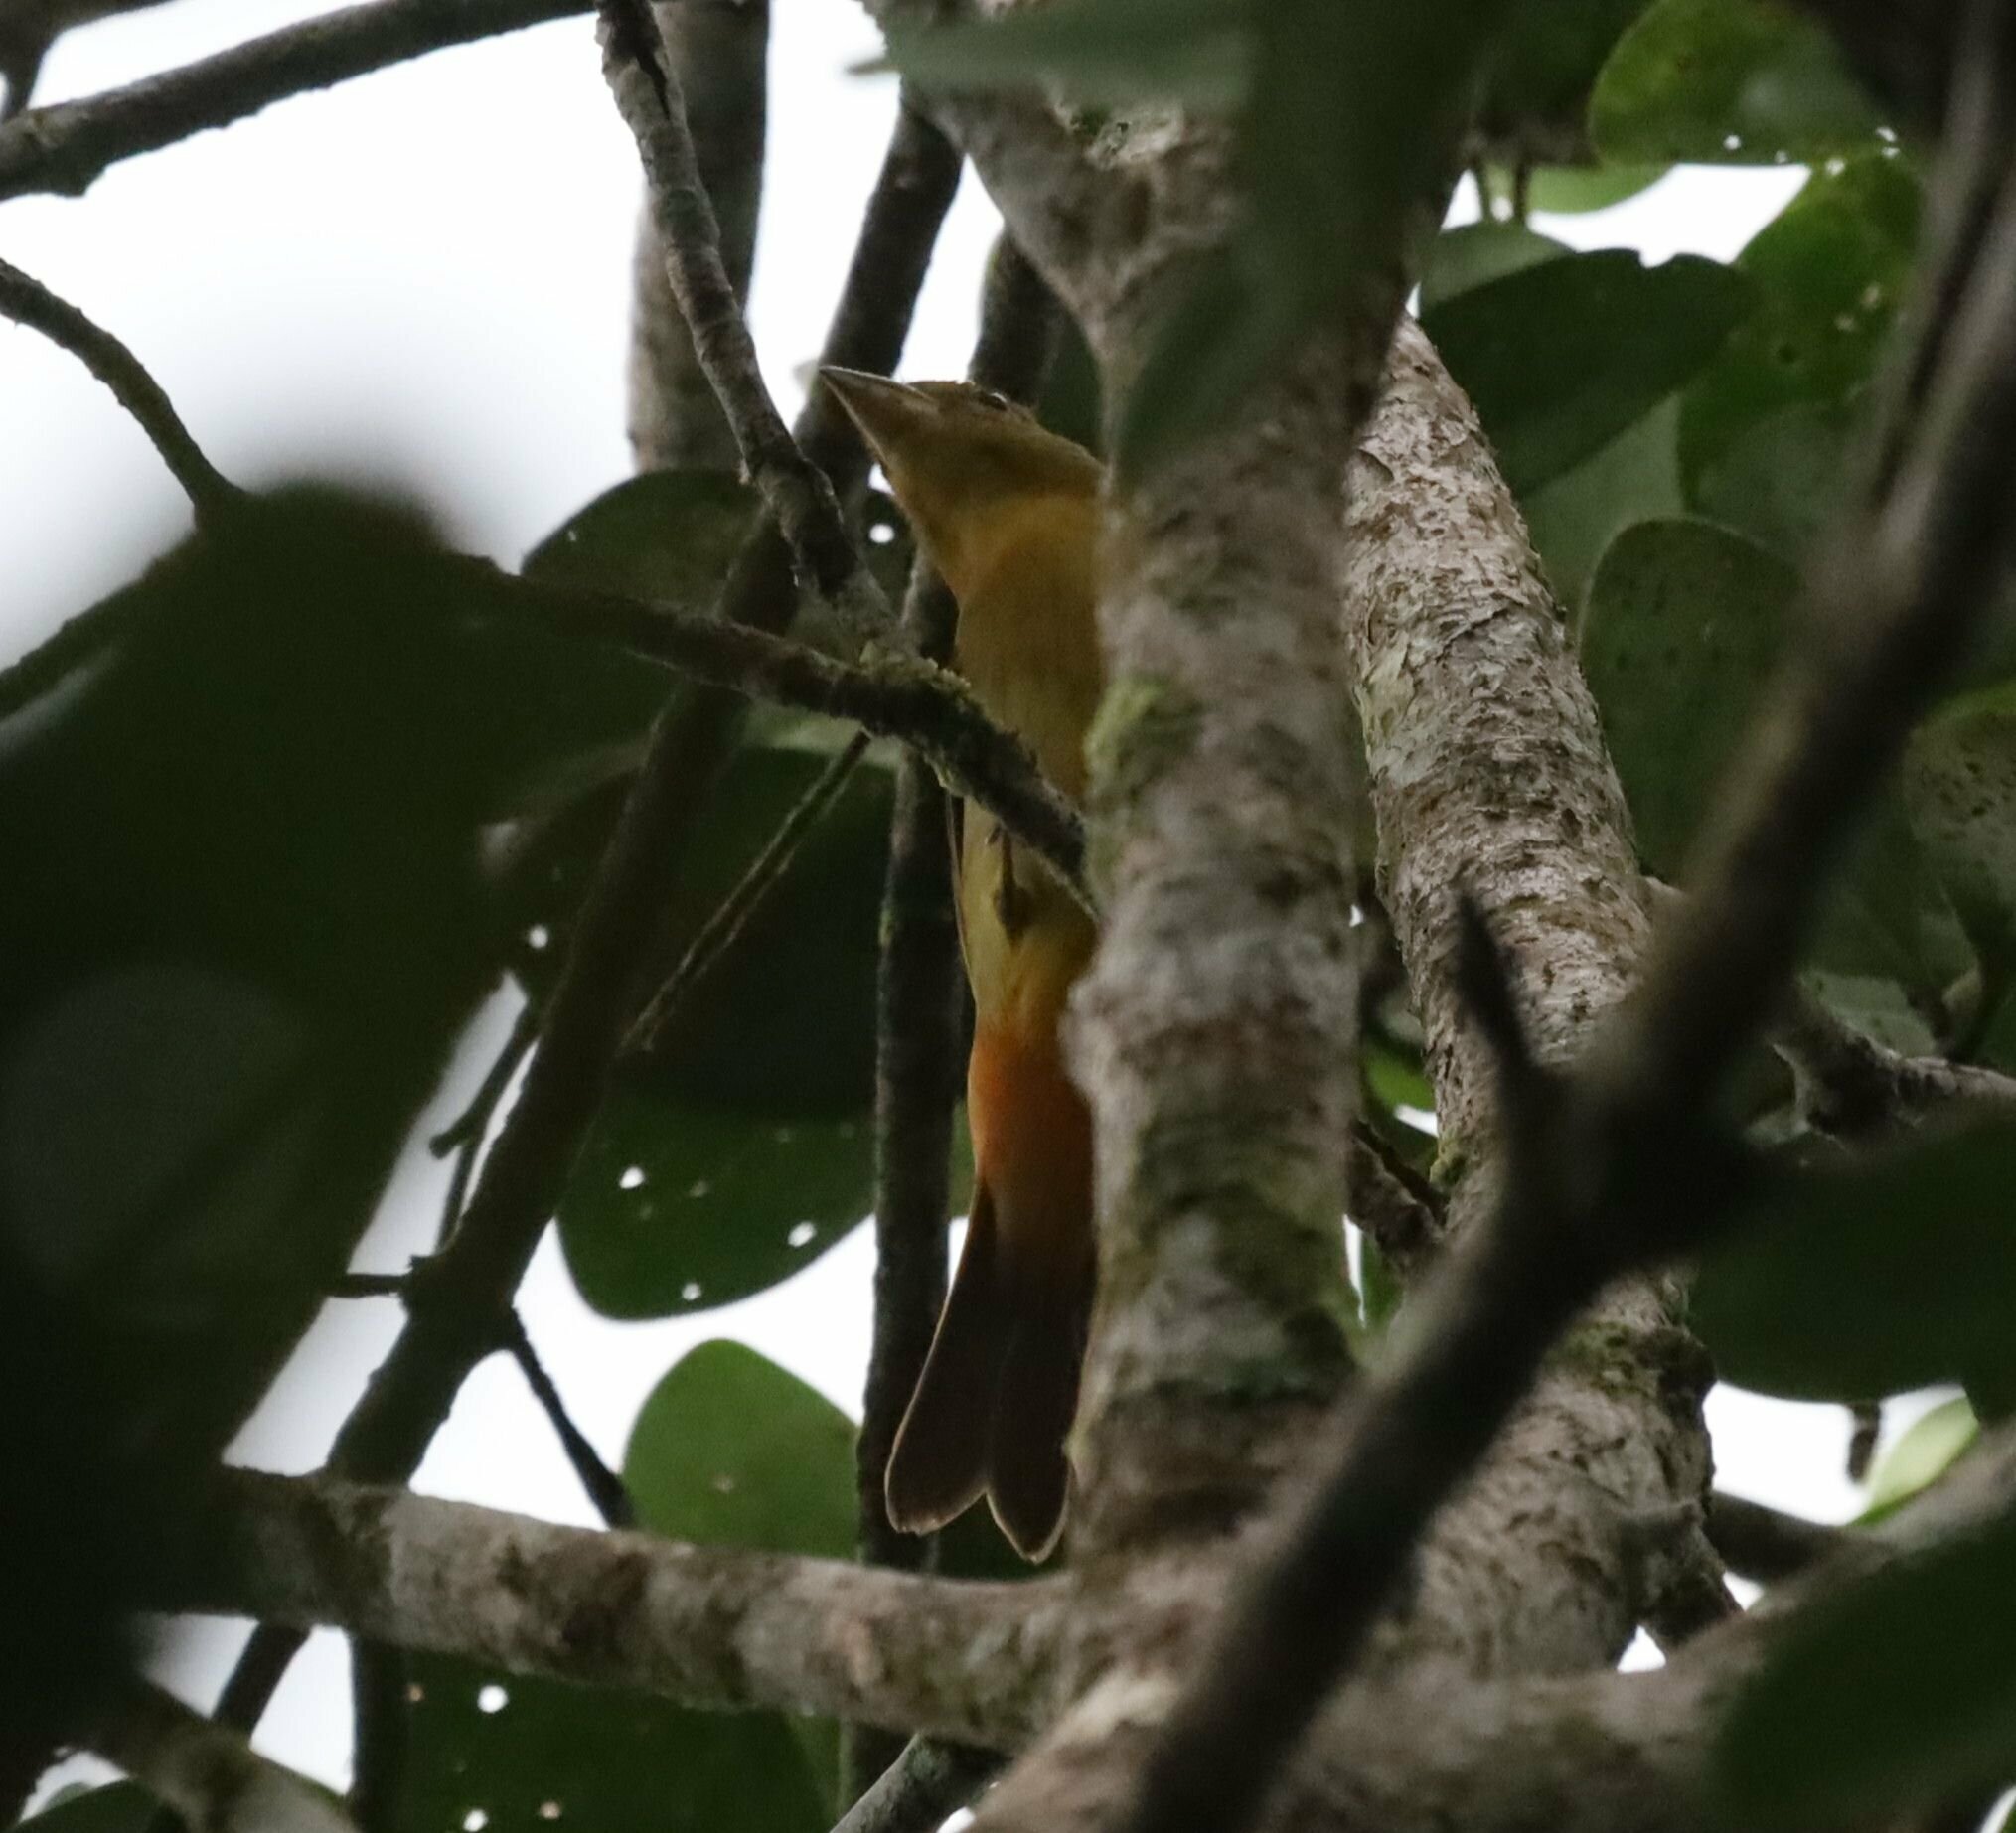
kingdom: Animalia
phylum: Chordata
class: Aves
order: Passeriformes
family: Cardinalidae
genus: Piranga
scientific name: Piranga rubra
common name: Summer tanager
